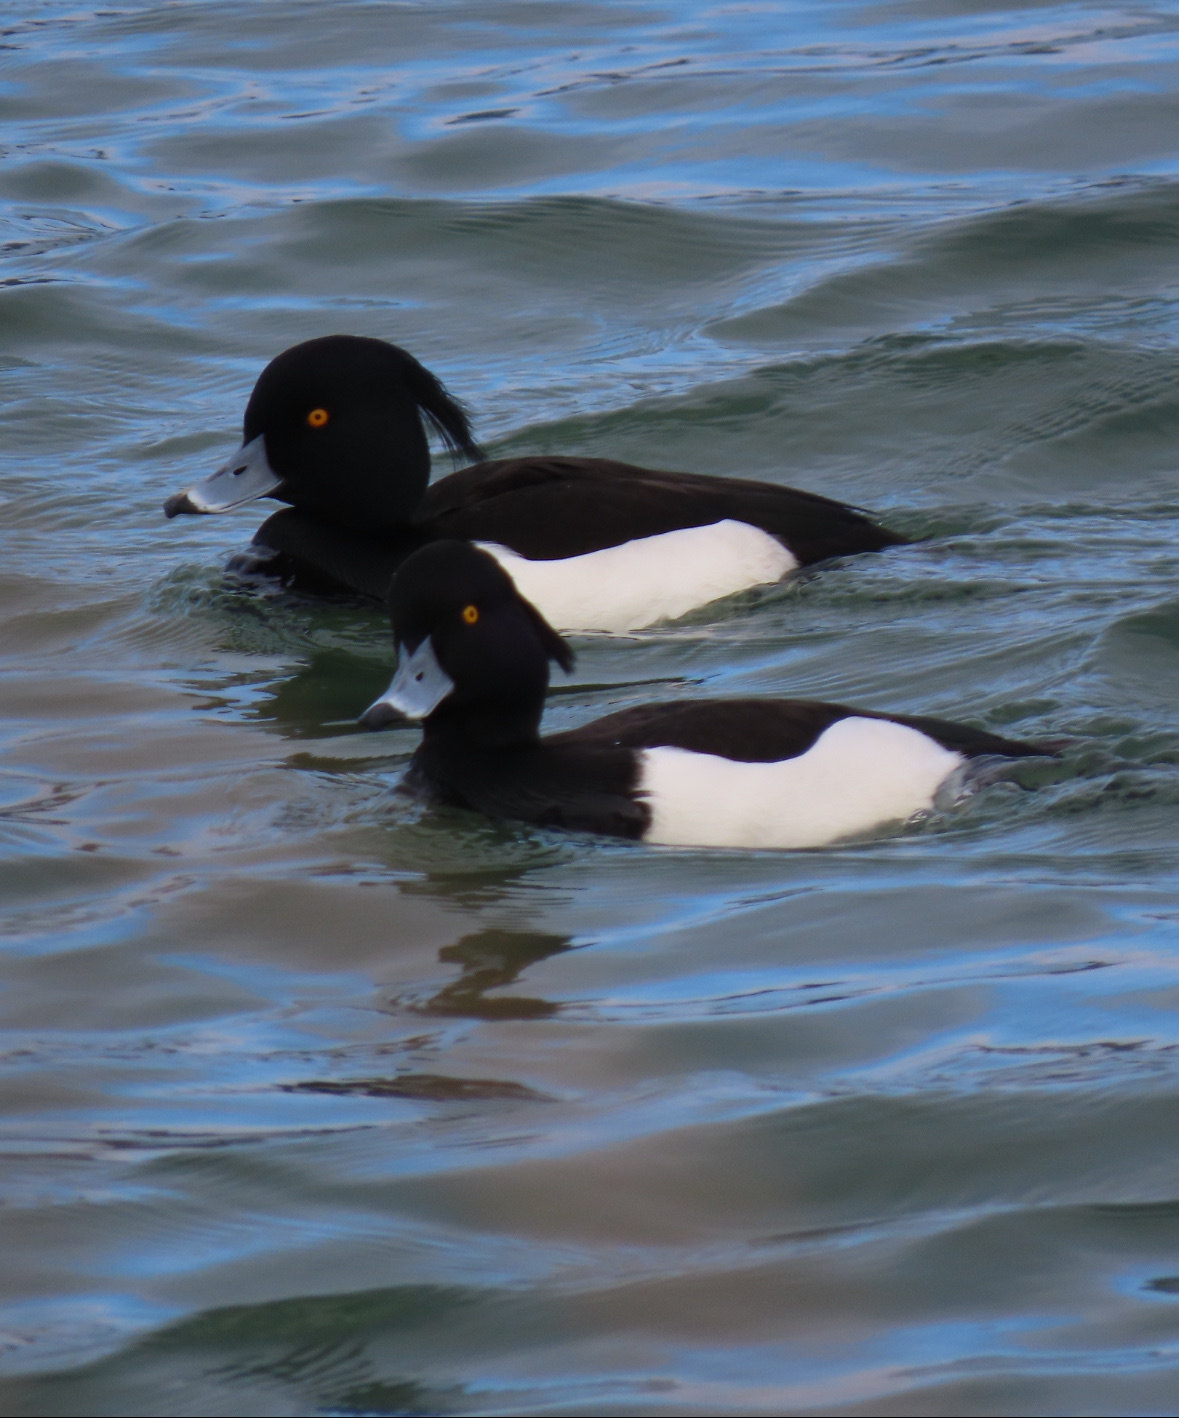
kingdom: Animalia
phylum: Chordata
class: Aves
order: Anseriformes
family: Anatidae
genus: Aythya
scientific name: Aythya fuligula
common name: Tufted duck
